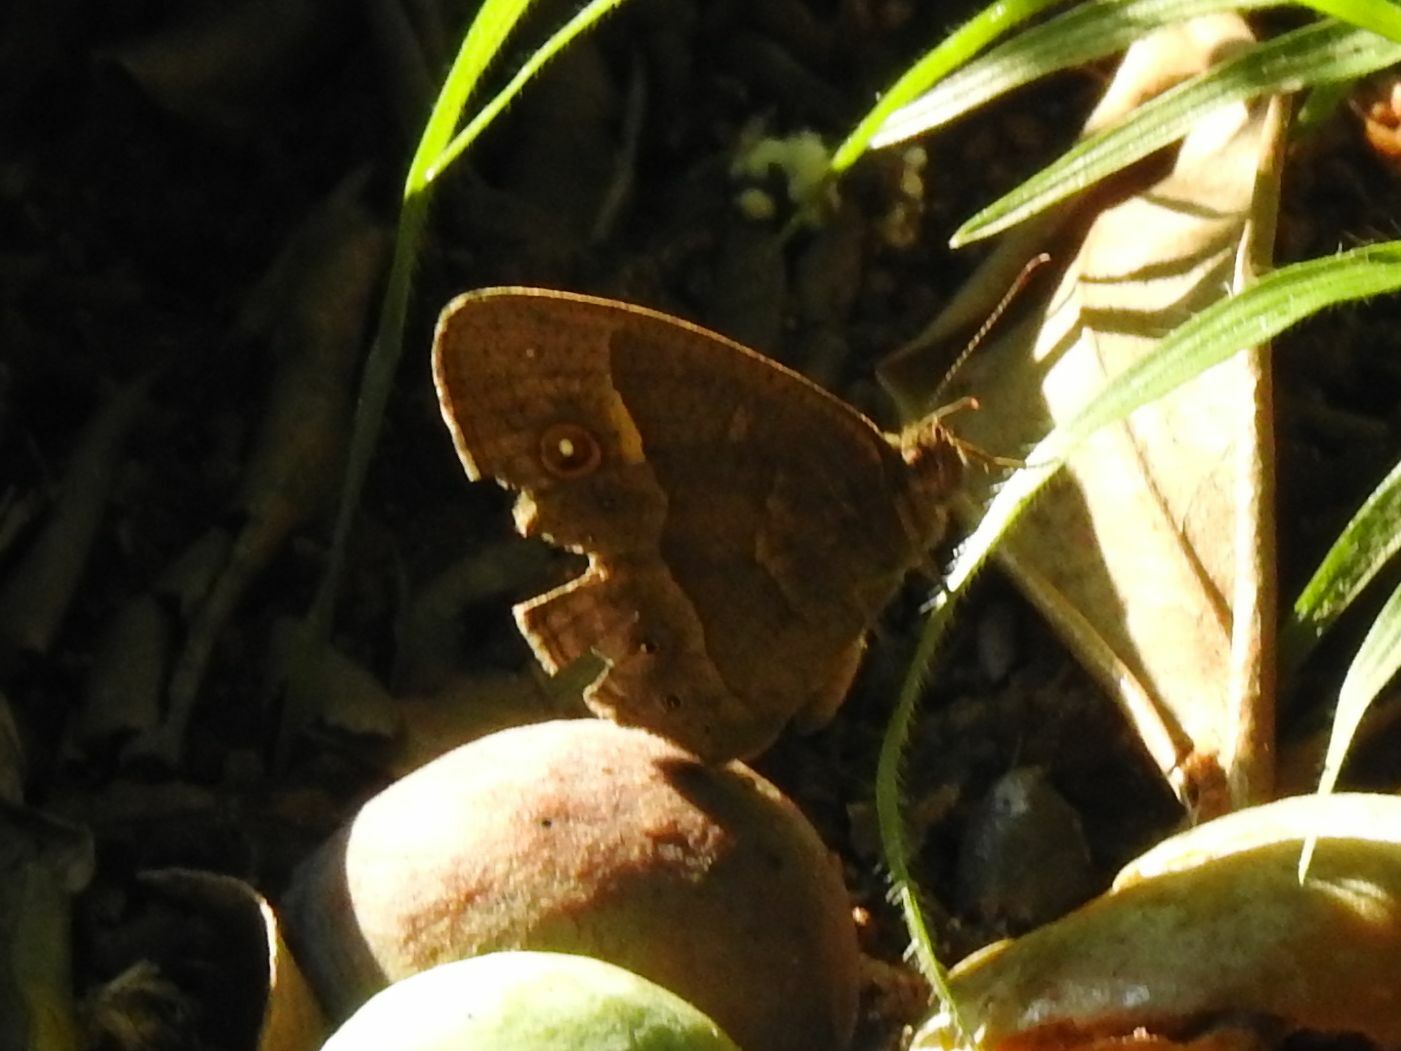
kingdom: Animalia
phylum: Arthropoda
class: Insecta
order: Lepidoptera
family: Nymphalidae
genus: Mycalesis
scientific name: Mycalesis anynana
